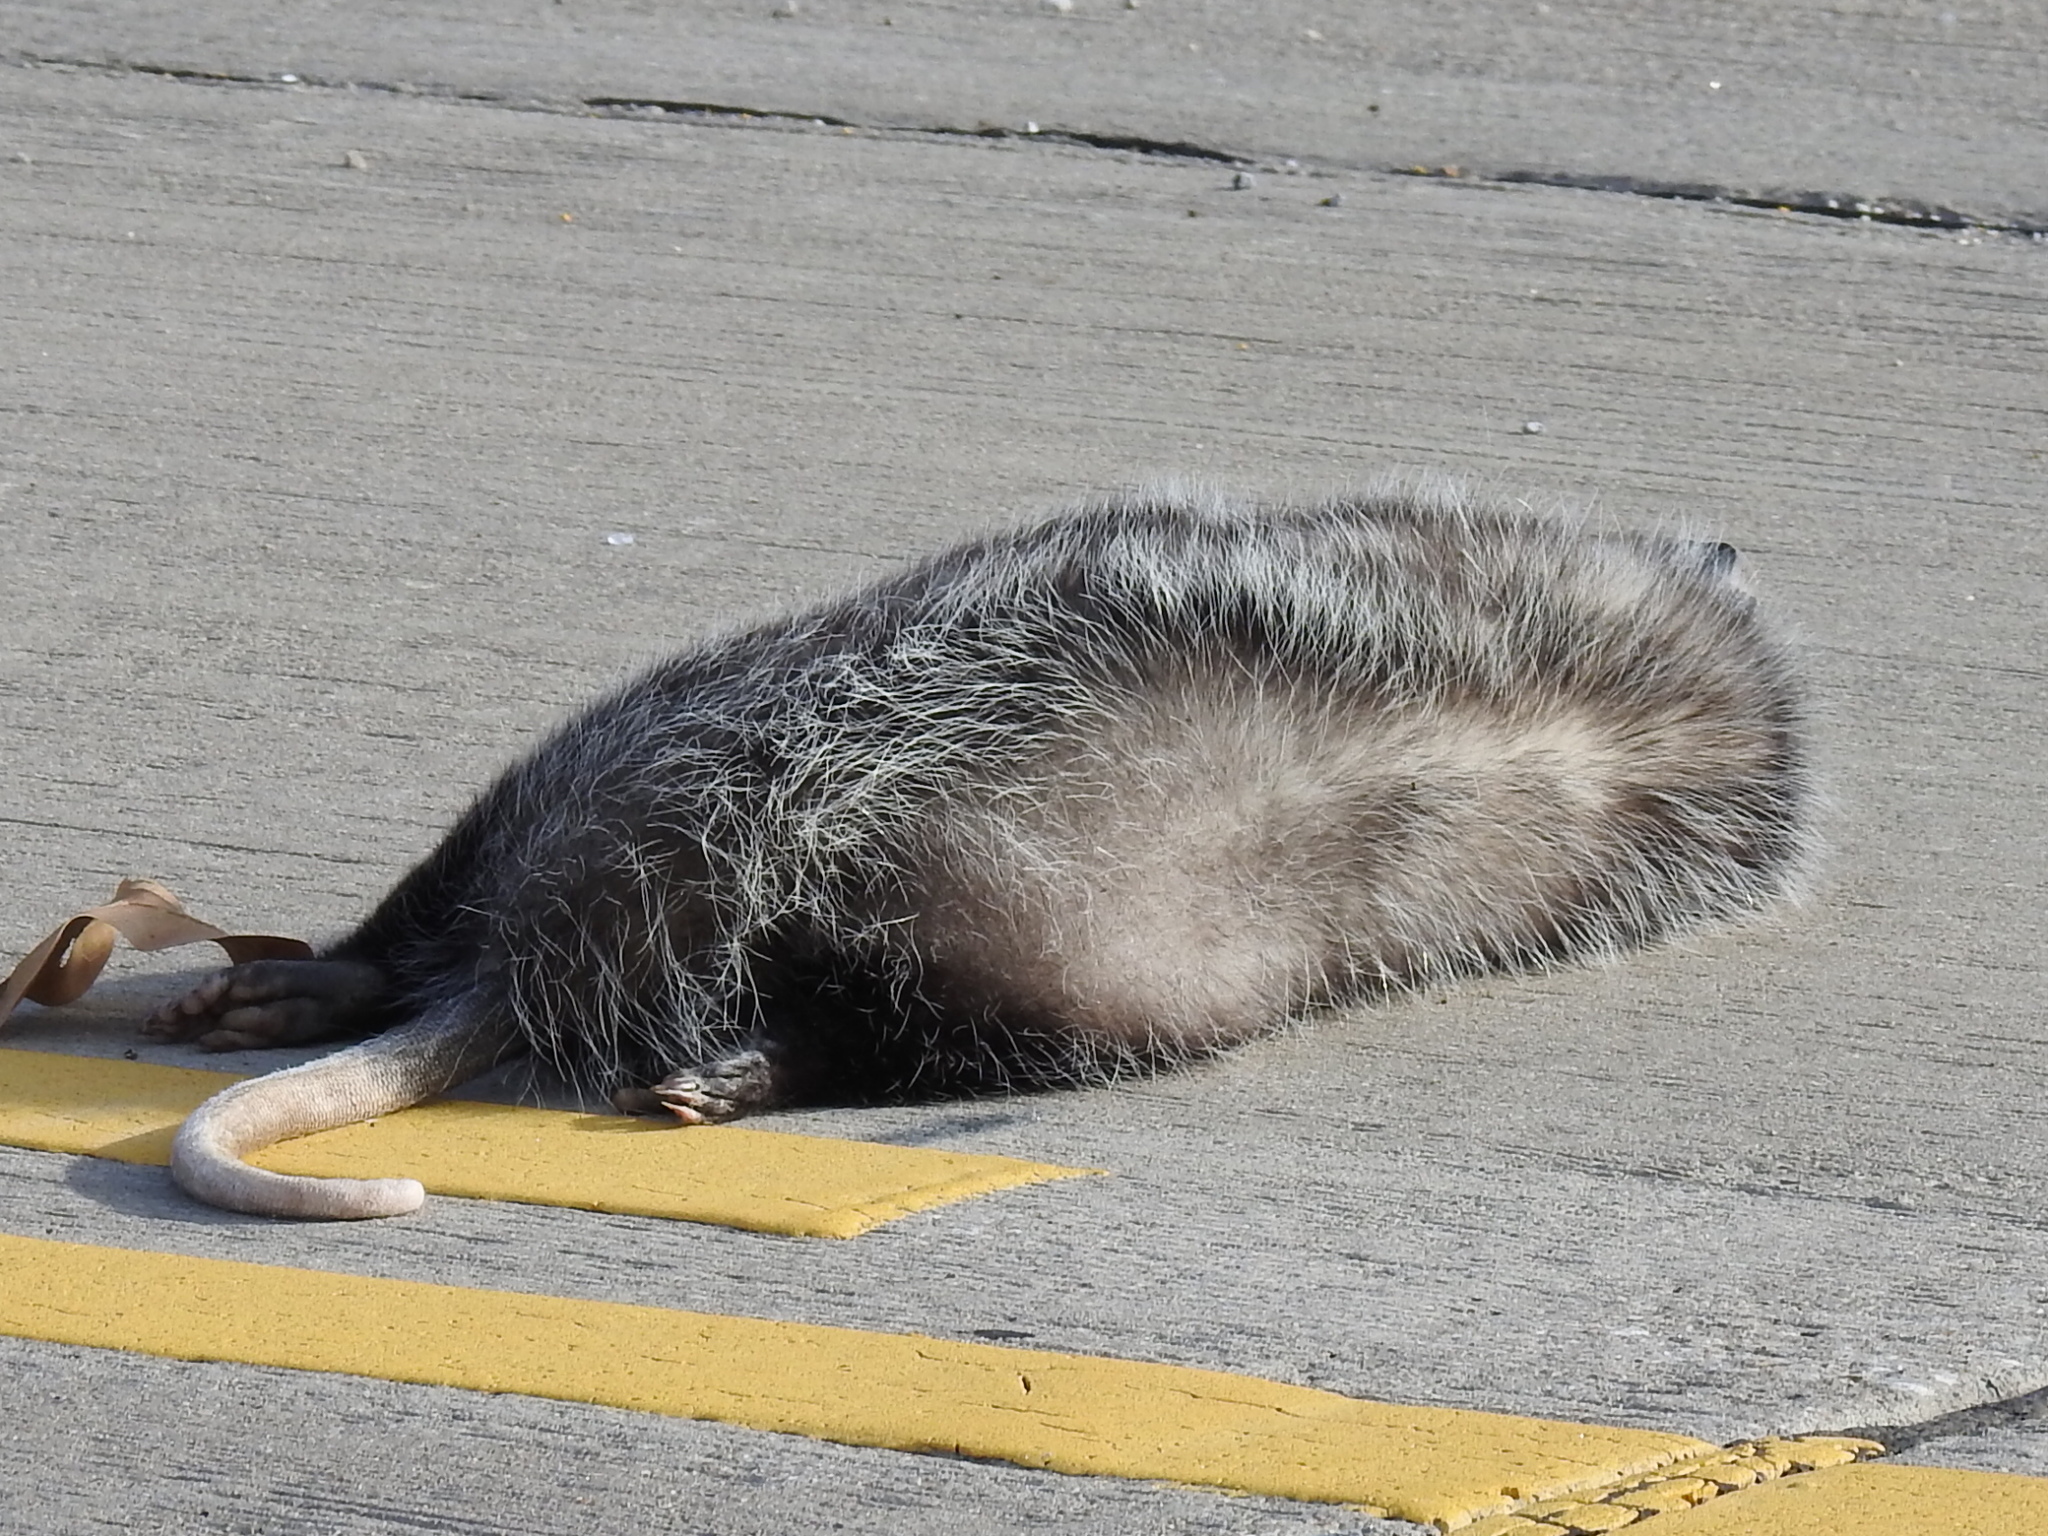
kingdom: Animalia
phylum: Chordata
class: Mammalia
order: Didelphimorphia
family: Didelphidae
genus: Didelphis
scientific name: Didelphis virginiana
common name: Virginia opossum
